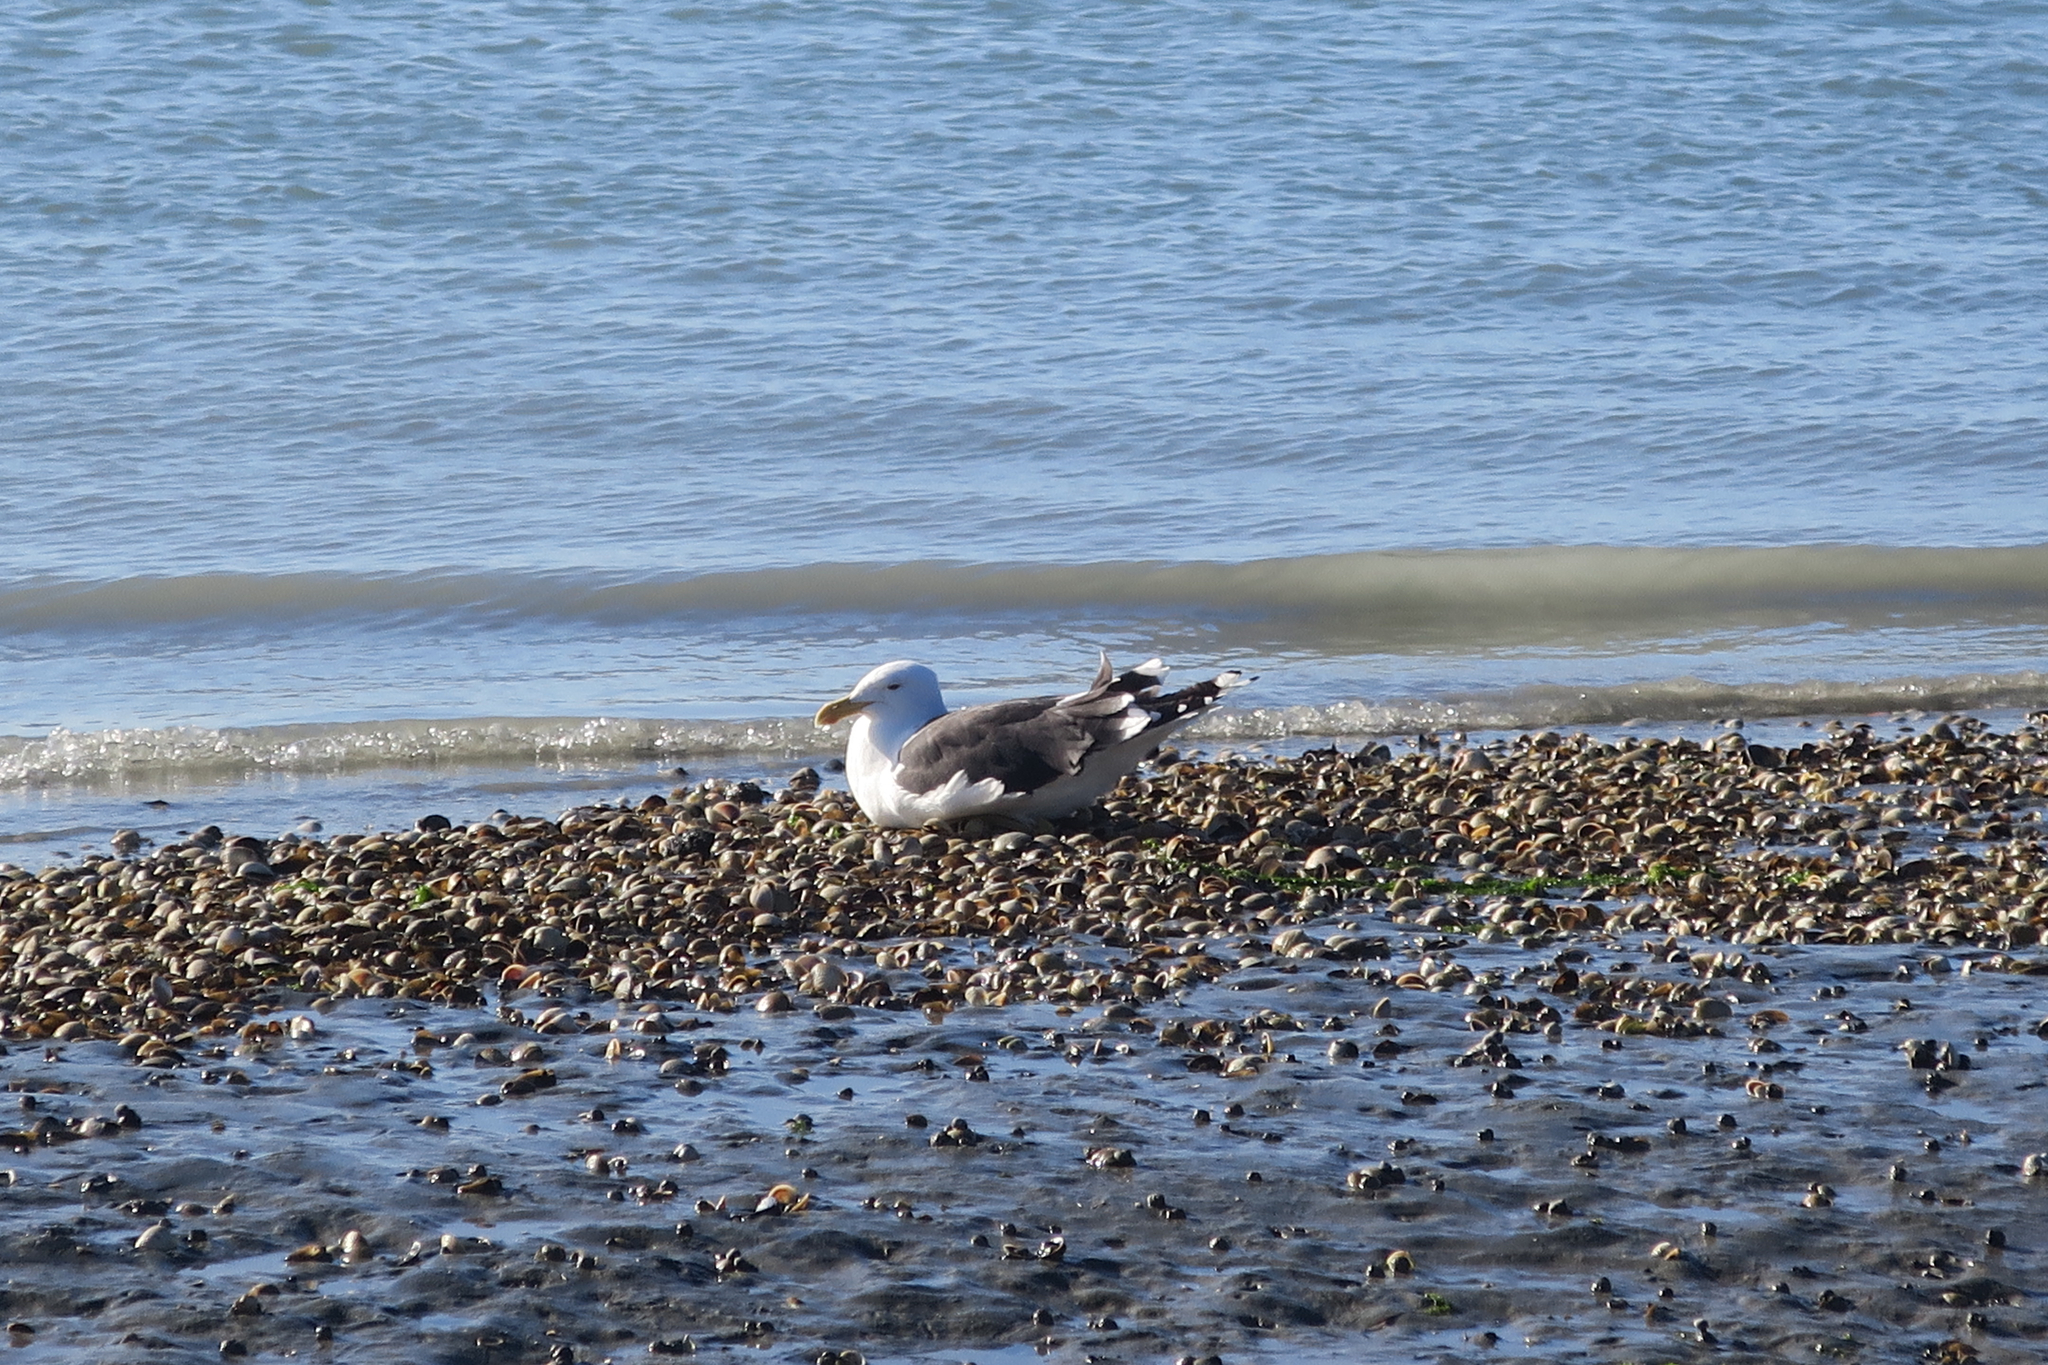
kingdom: Animalia
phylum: Chordata
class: Aves
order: Charadriiformes
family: Laridae
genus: Larus
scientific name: Larus dominicanus
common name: Kelp gull
